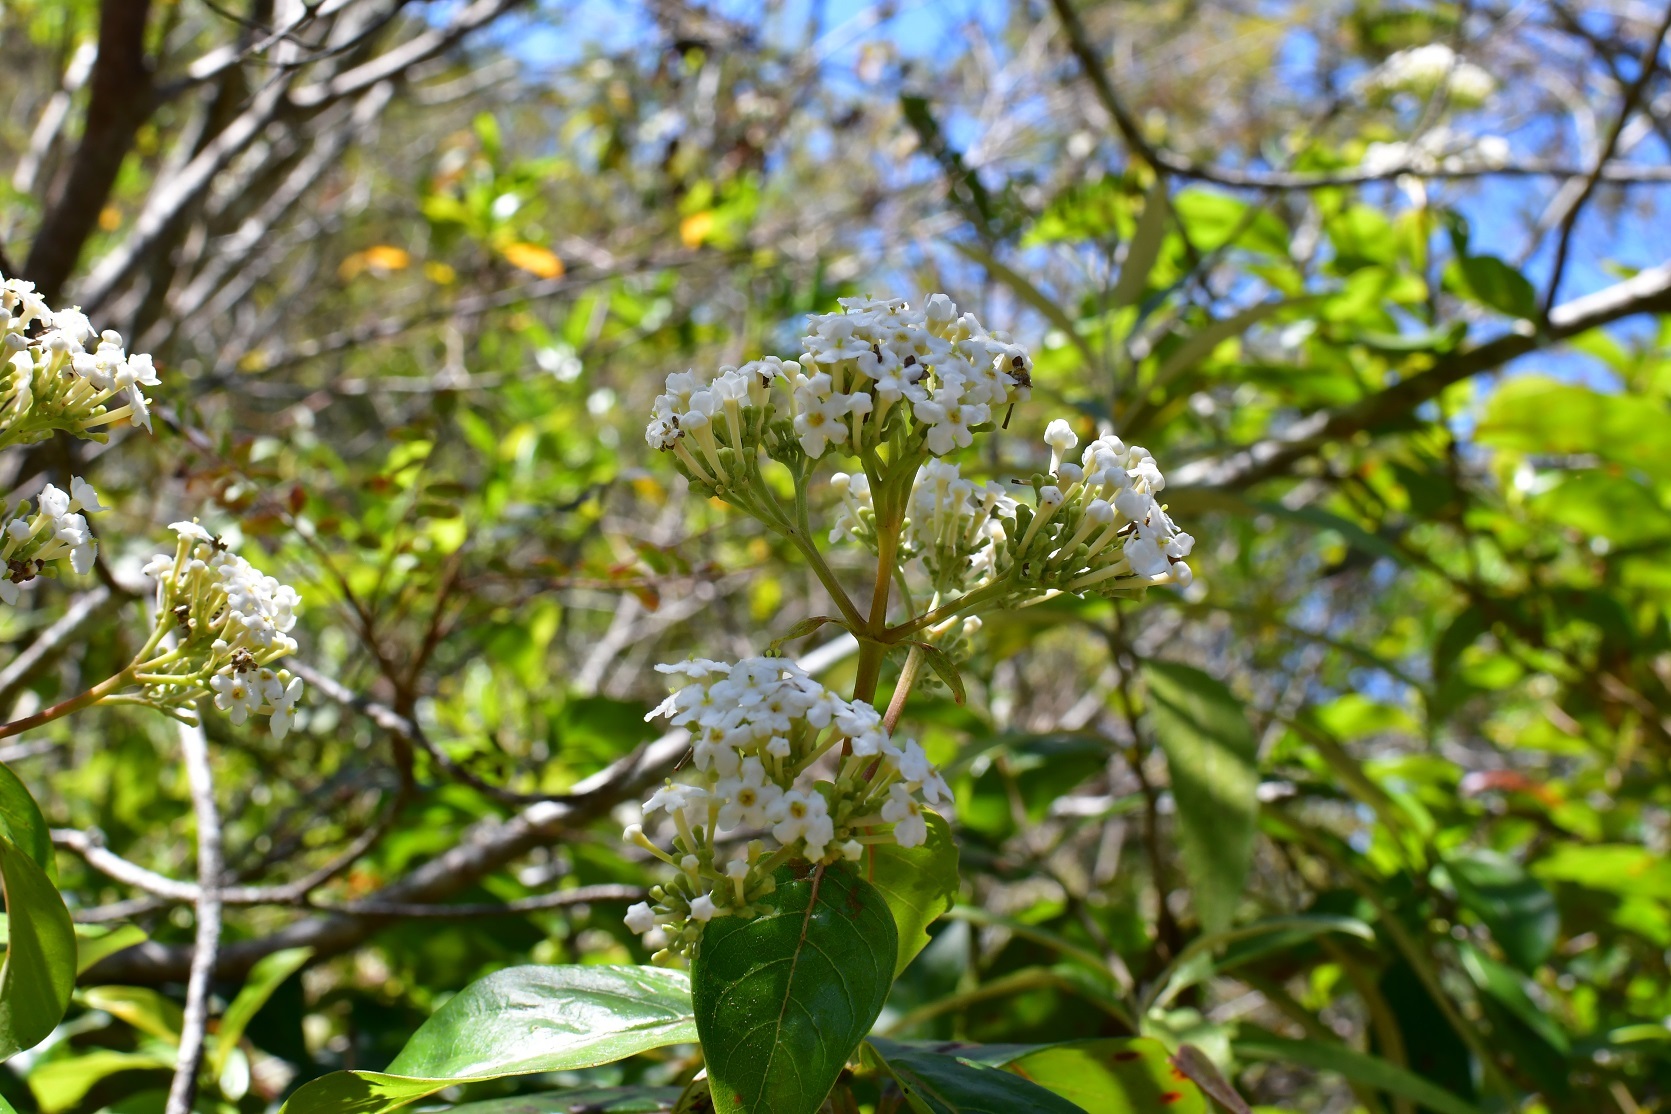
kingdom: Plantae
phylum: Tracheophyta
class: Magnoliopsida
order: Gentianales
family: Rubiaceae
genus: Rogiera
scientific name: Rogiera stenosiphon
